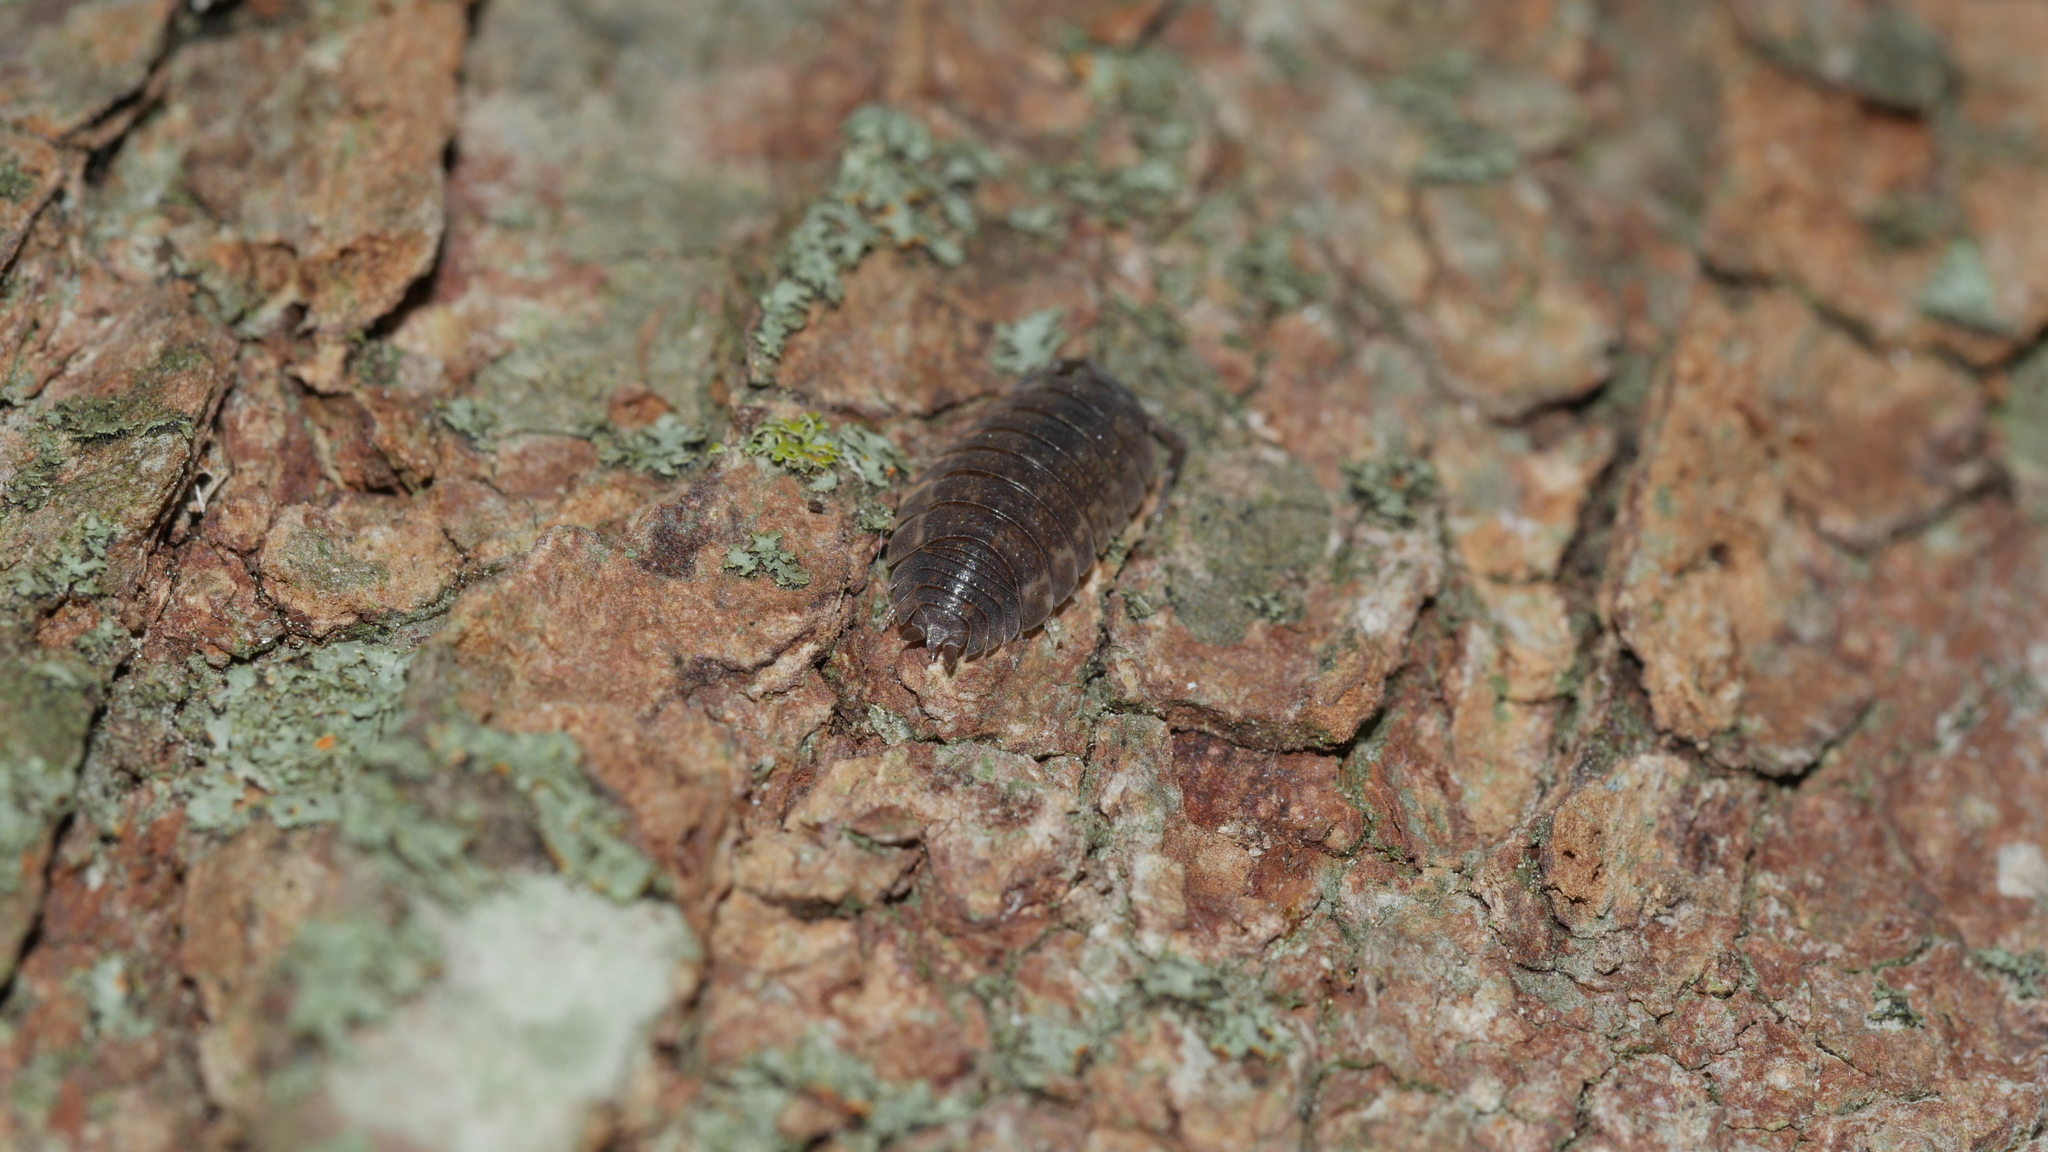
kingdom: Animalia
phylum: Arthropoda
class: Malacostraca
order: Isopoda
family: Porcellionidae
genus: Porcellio
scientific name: Porcellio scaber
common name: Common rough woodlouse
